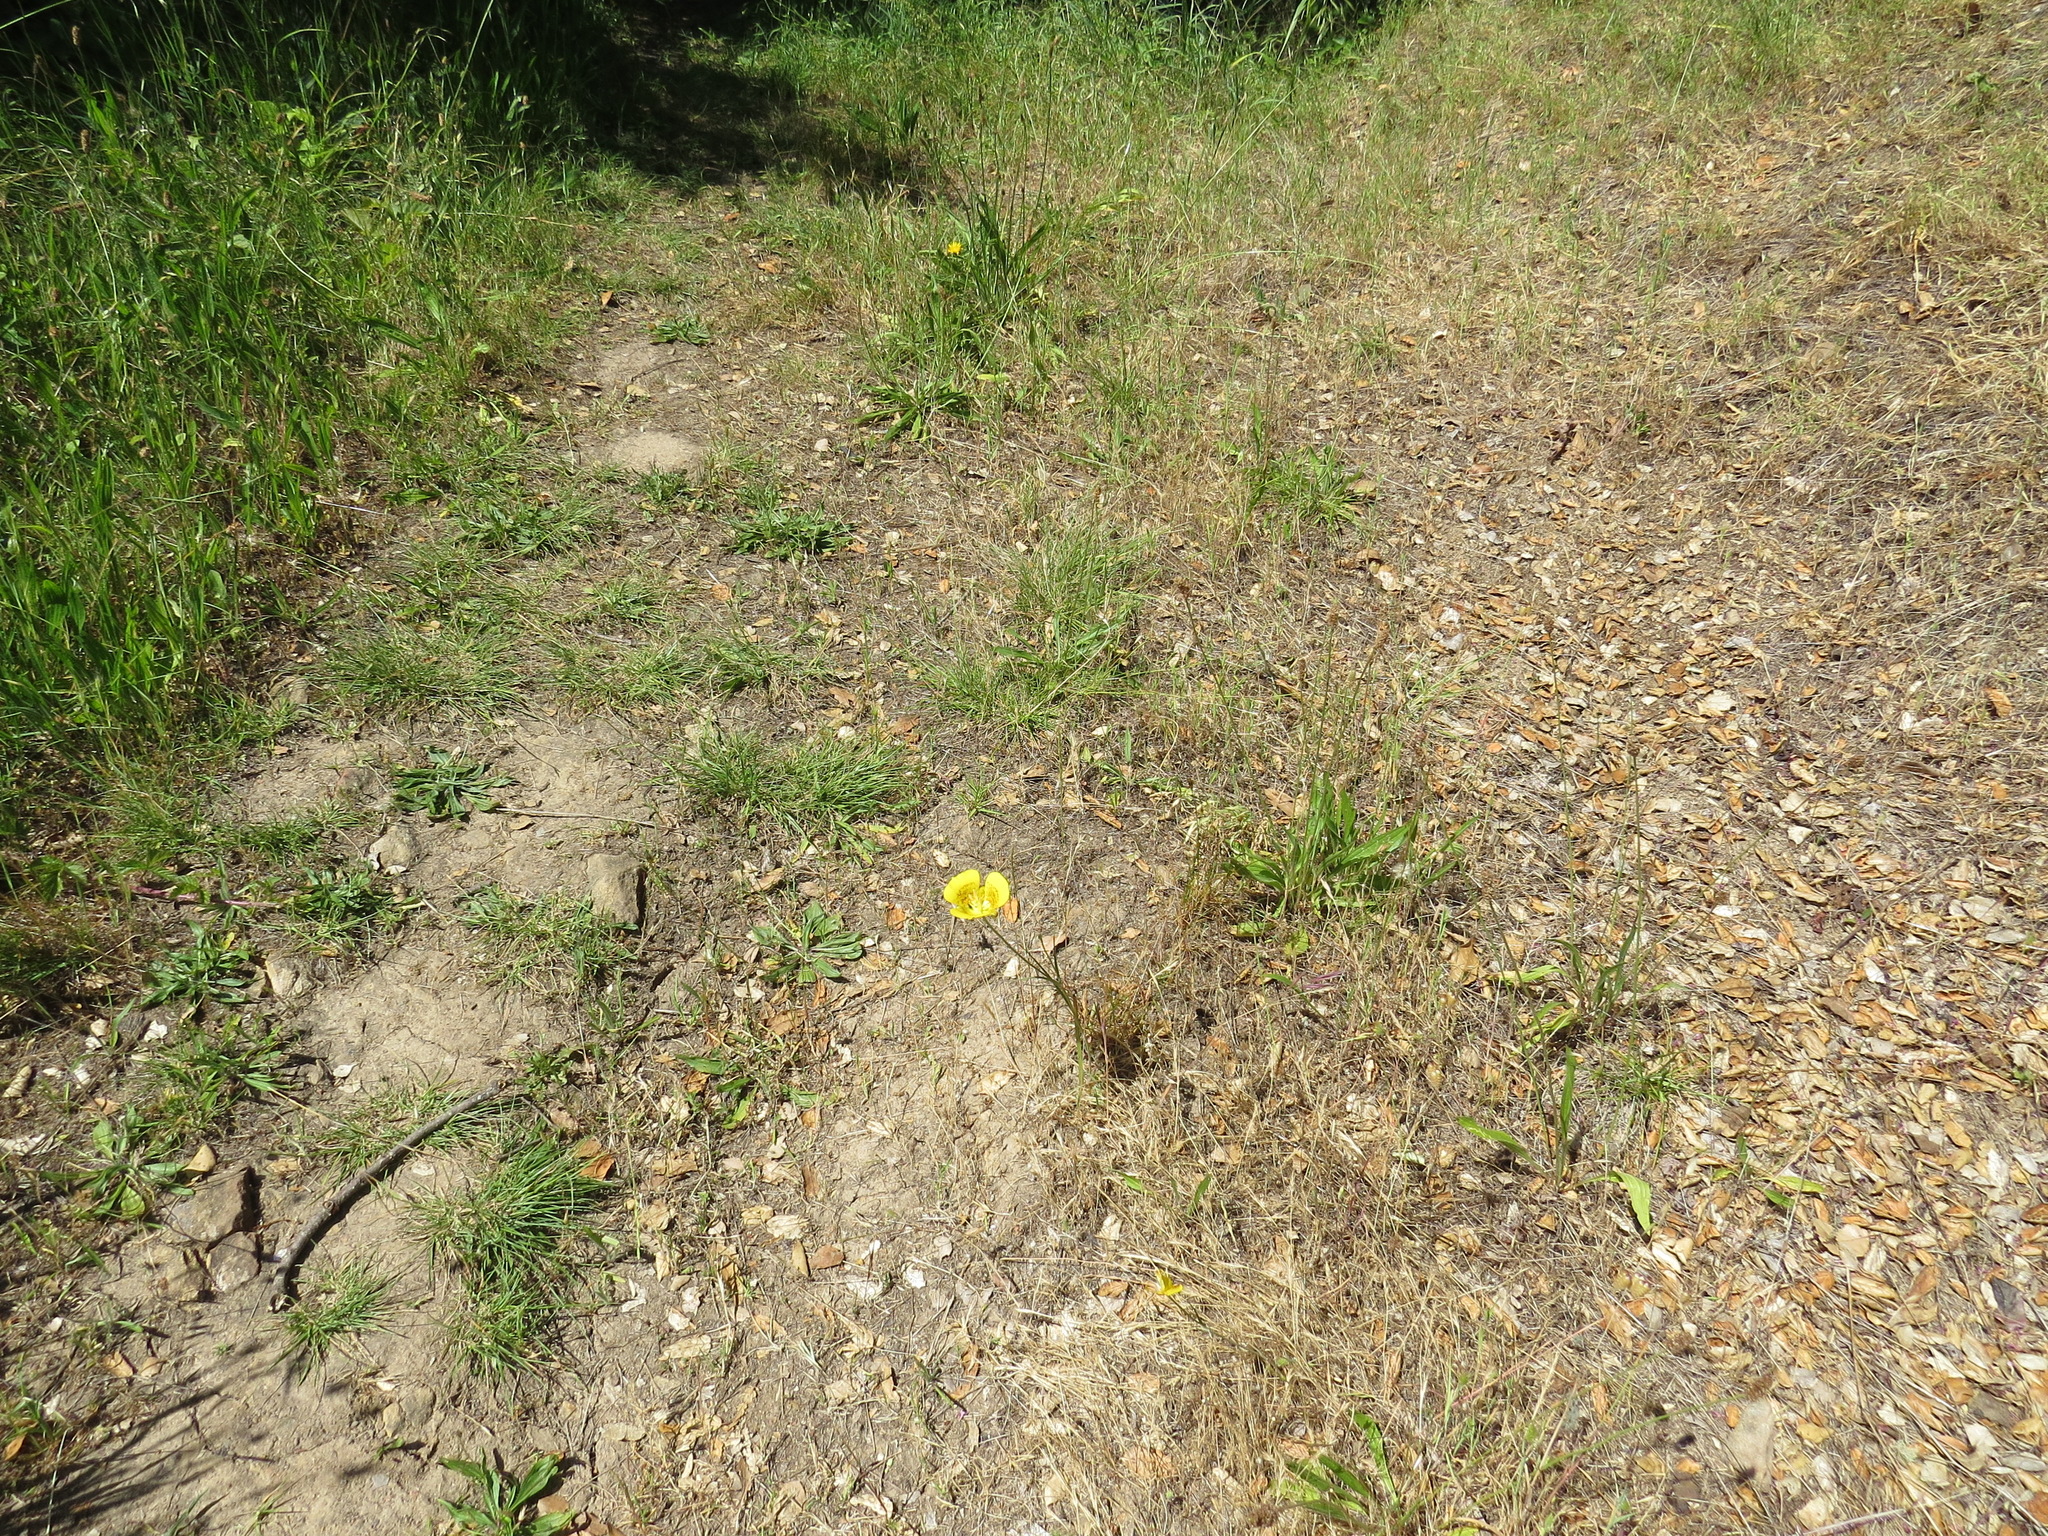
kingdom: Plantae
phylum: Tracheophyta
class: Liliopsida
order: Liliales
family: Liliaceae
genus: Calochortus
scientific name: Calochortus luteus
